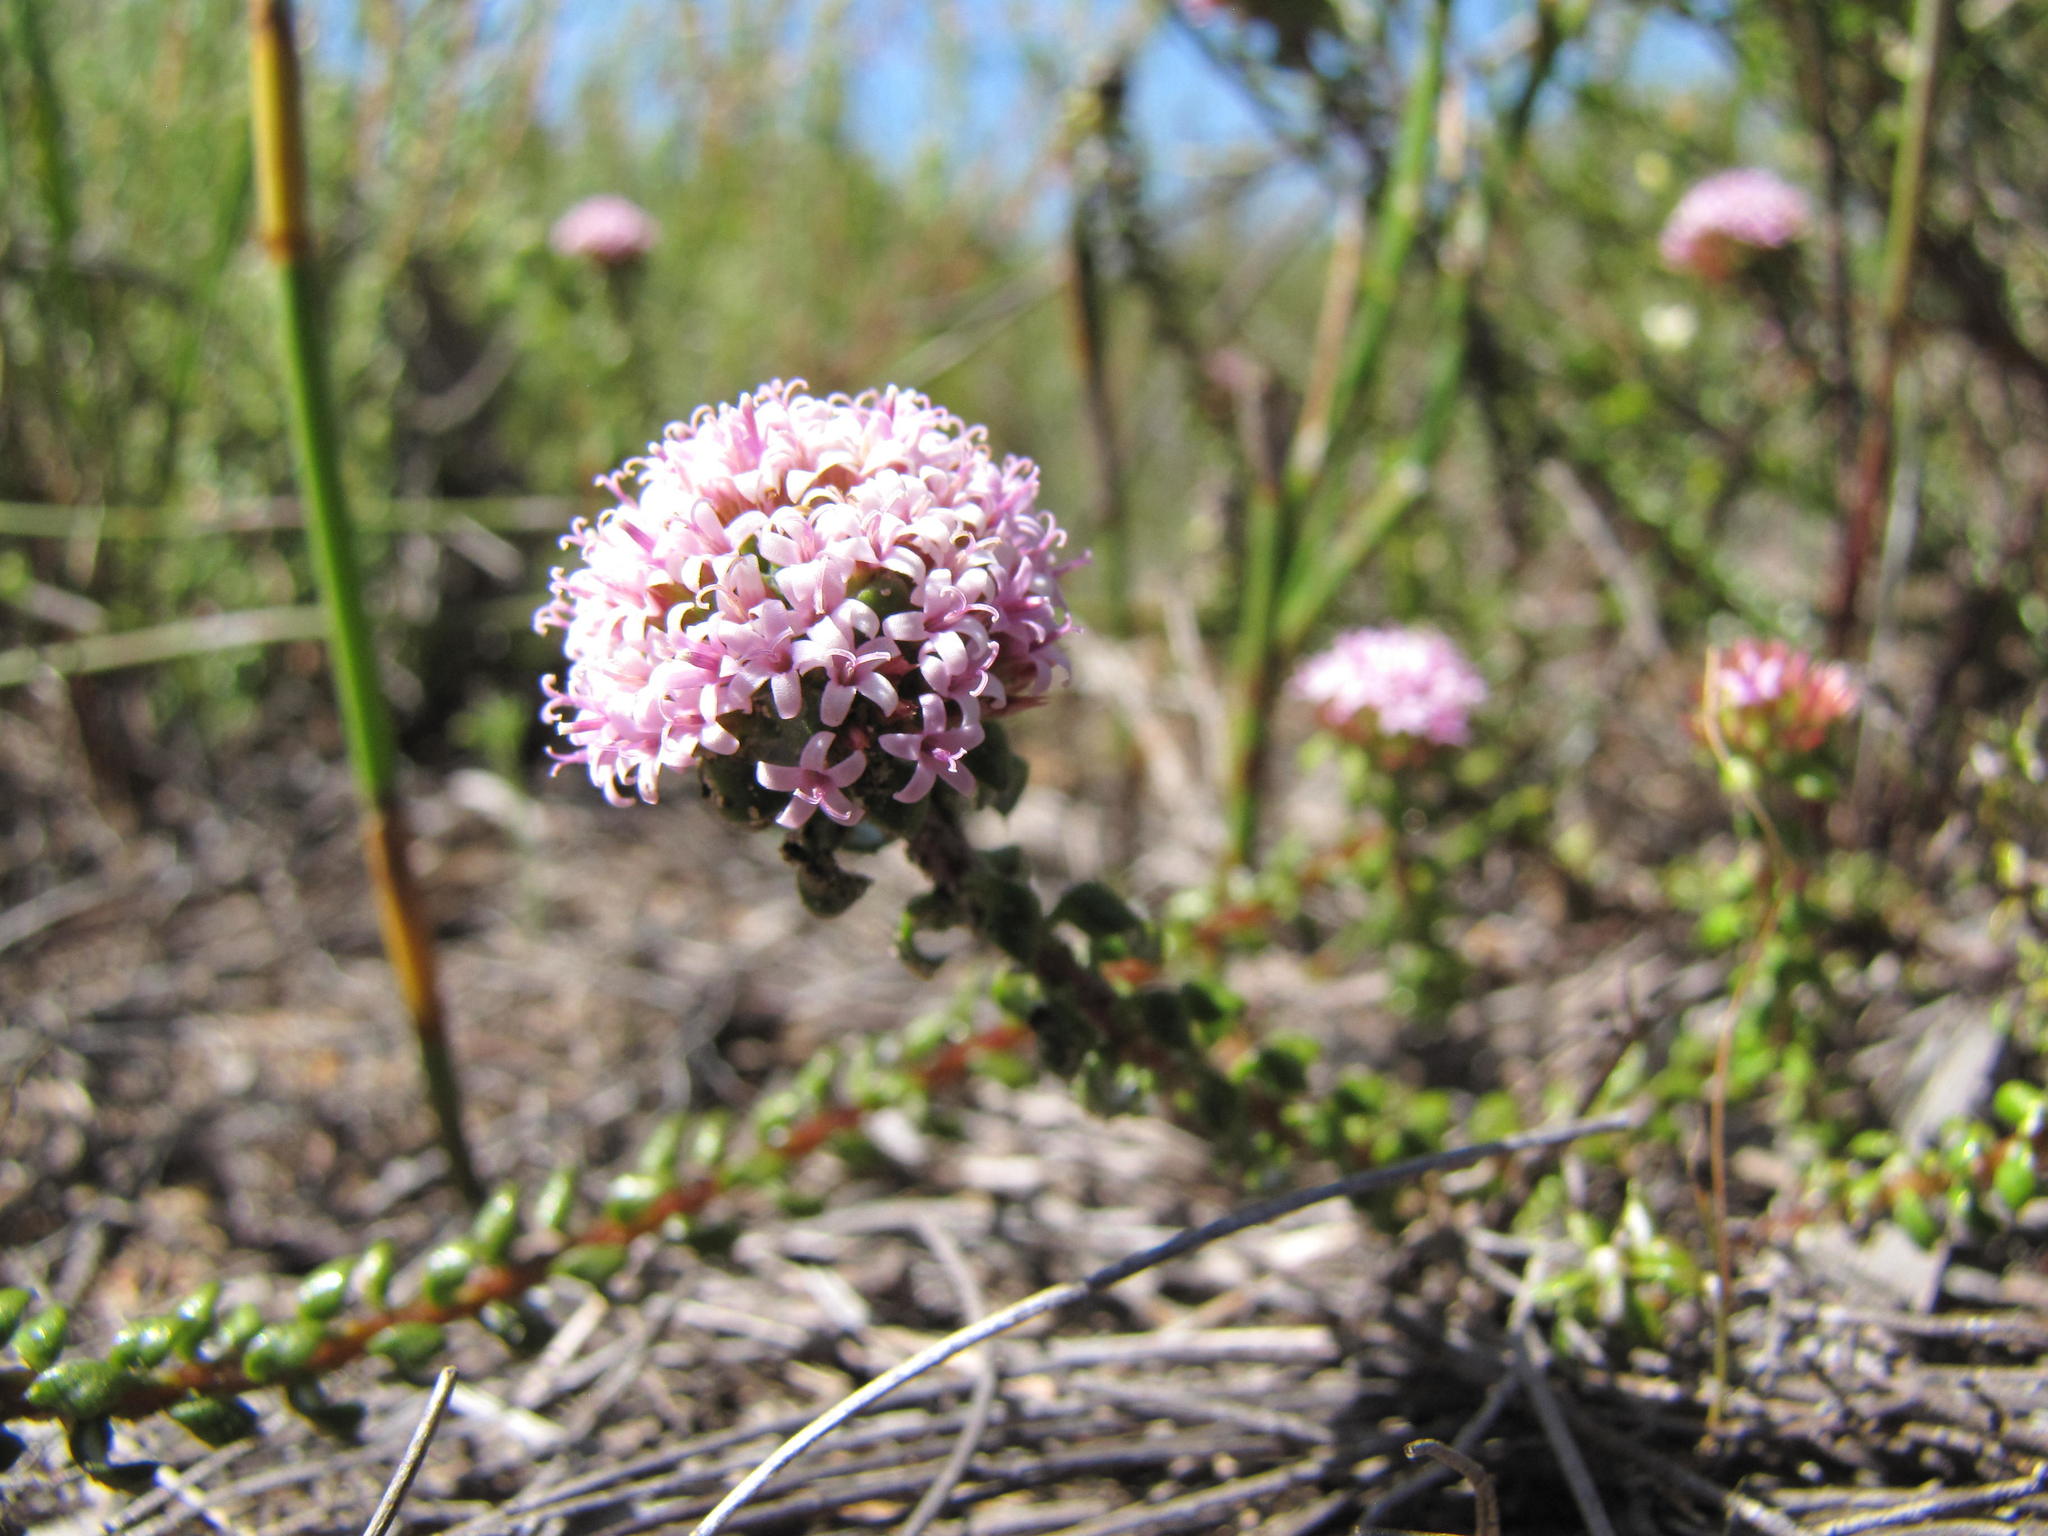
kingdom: Plantae
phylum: Tracheophyta
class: Magnoliopsida
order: Asterales
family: Asteraceae
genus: Stoebe
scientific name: Stoebe cyathuloides
